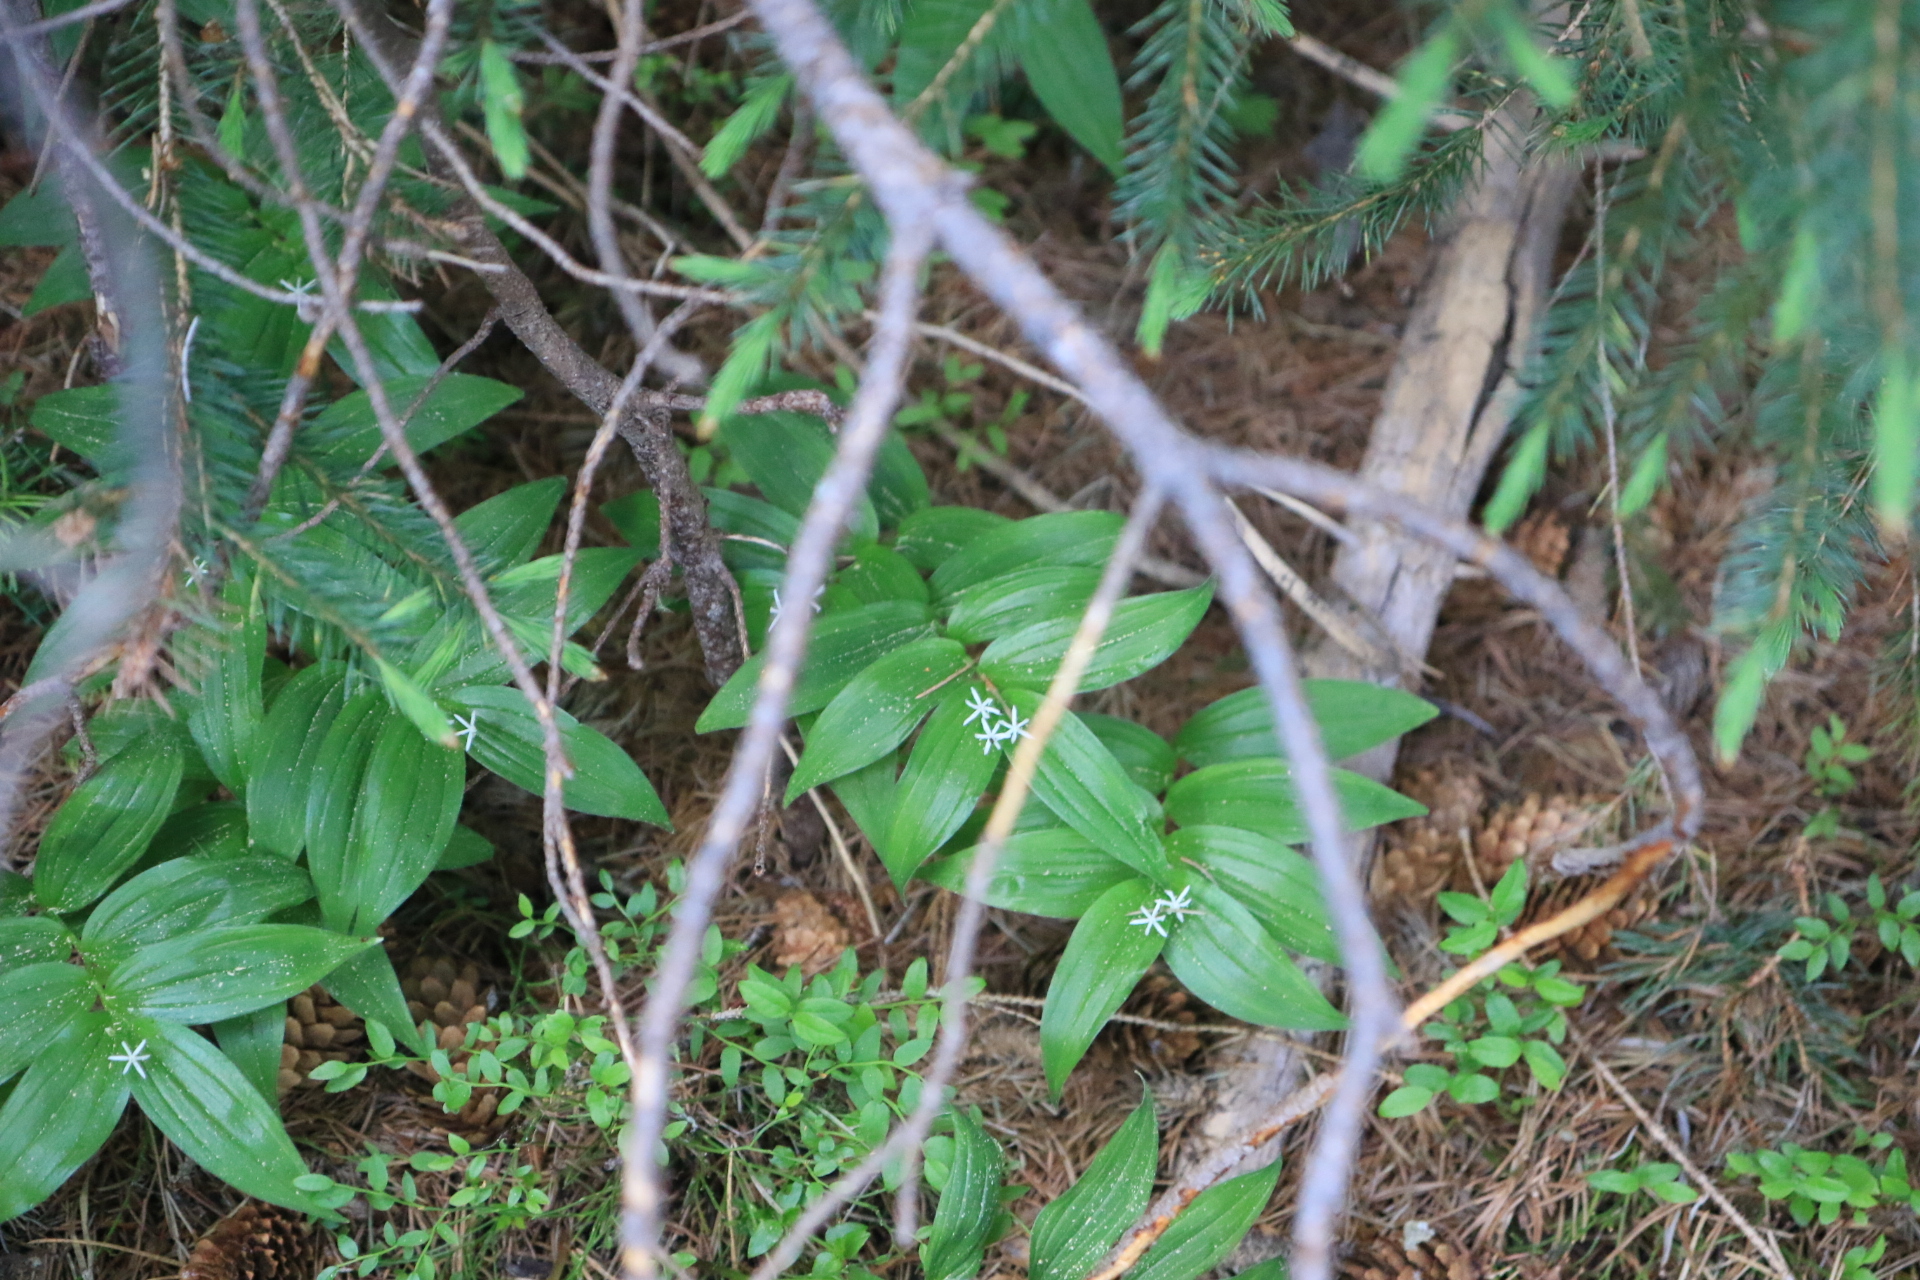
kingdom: Plantae
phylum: Tracheophyta
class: Liliopsida
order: Asparagales
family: Asparagaceae
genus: Maianthemum
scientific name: Maianthemum stellatum
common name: Little false solomon's seal
